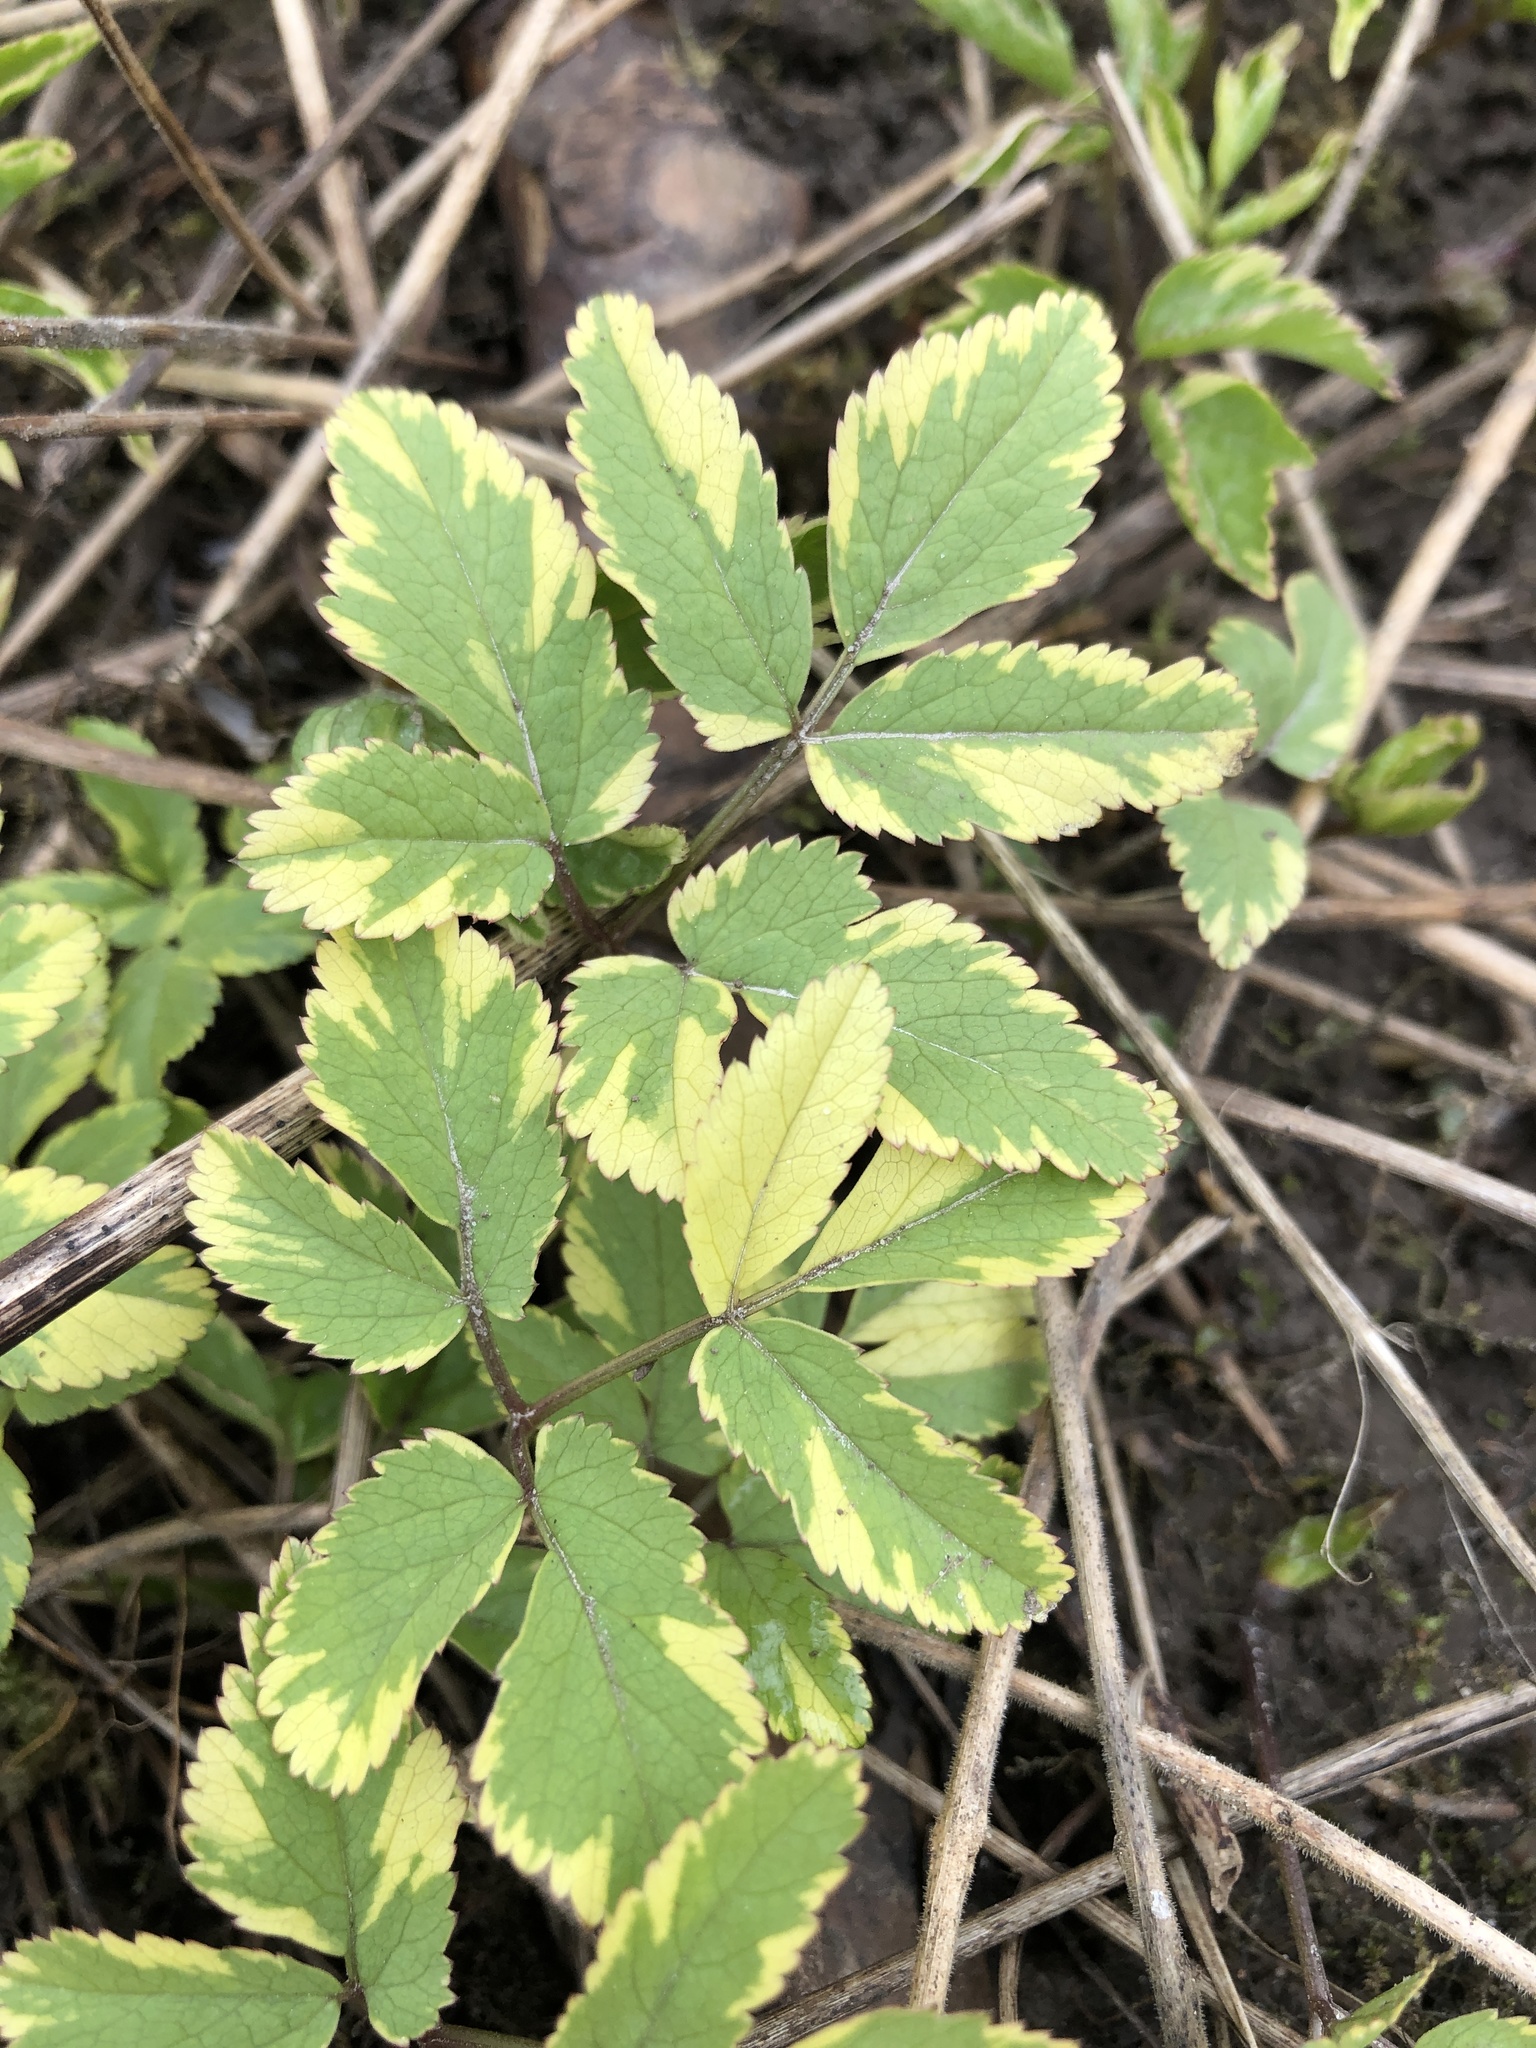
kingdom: Plantae
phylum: Tracheophyta
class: Magnoliopsida
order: Apiales
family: Apiaceae
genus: Aegopodium
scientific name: Aegopodium podagraria
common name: Ground-elder
